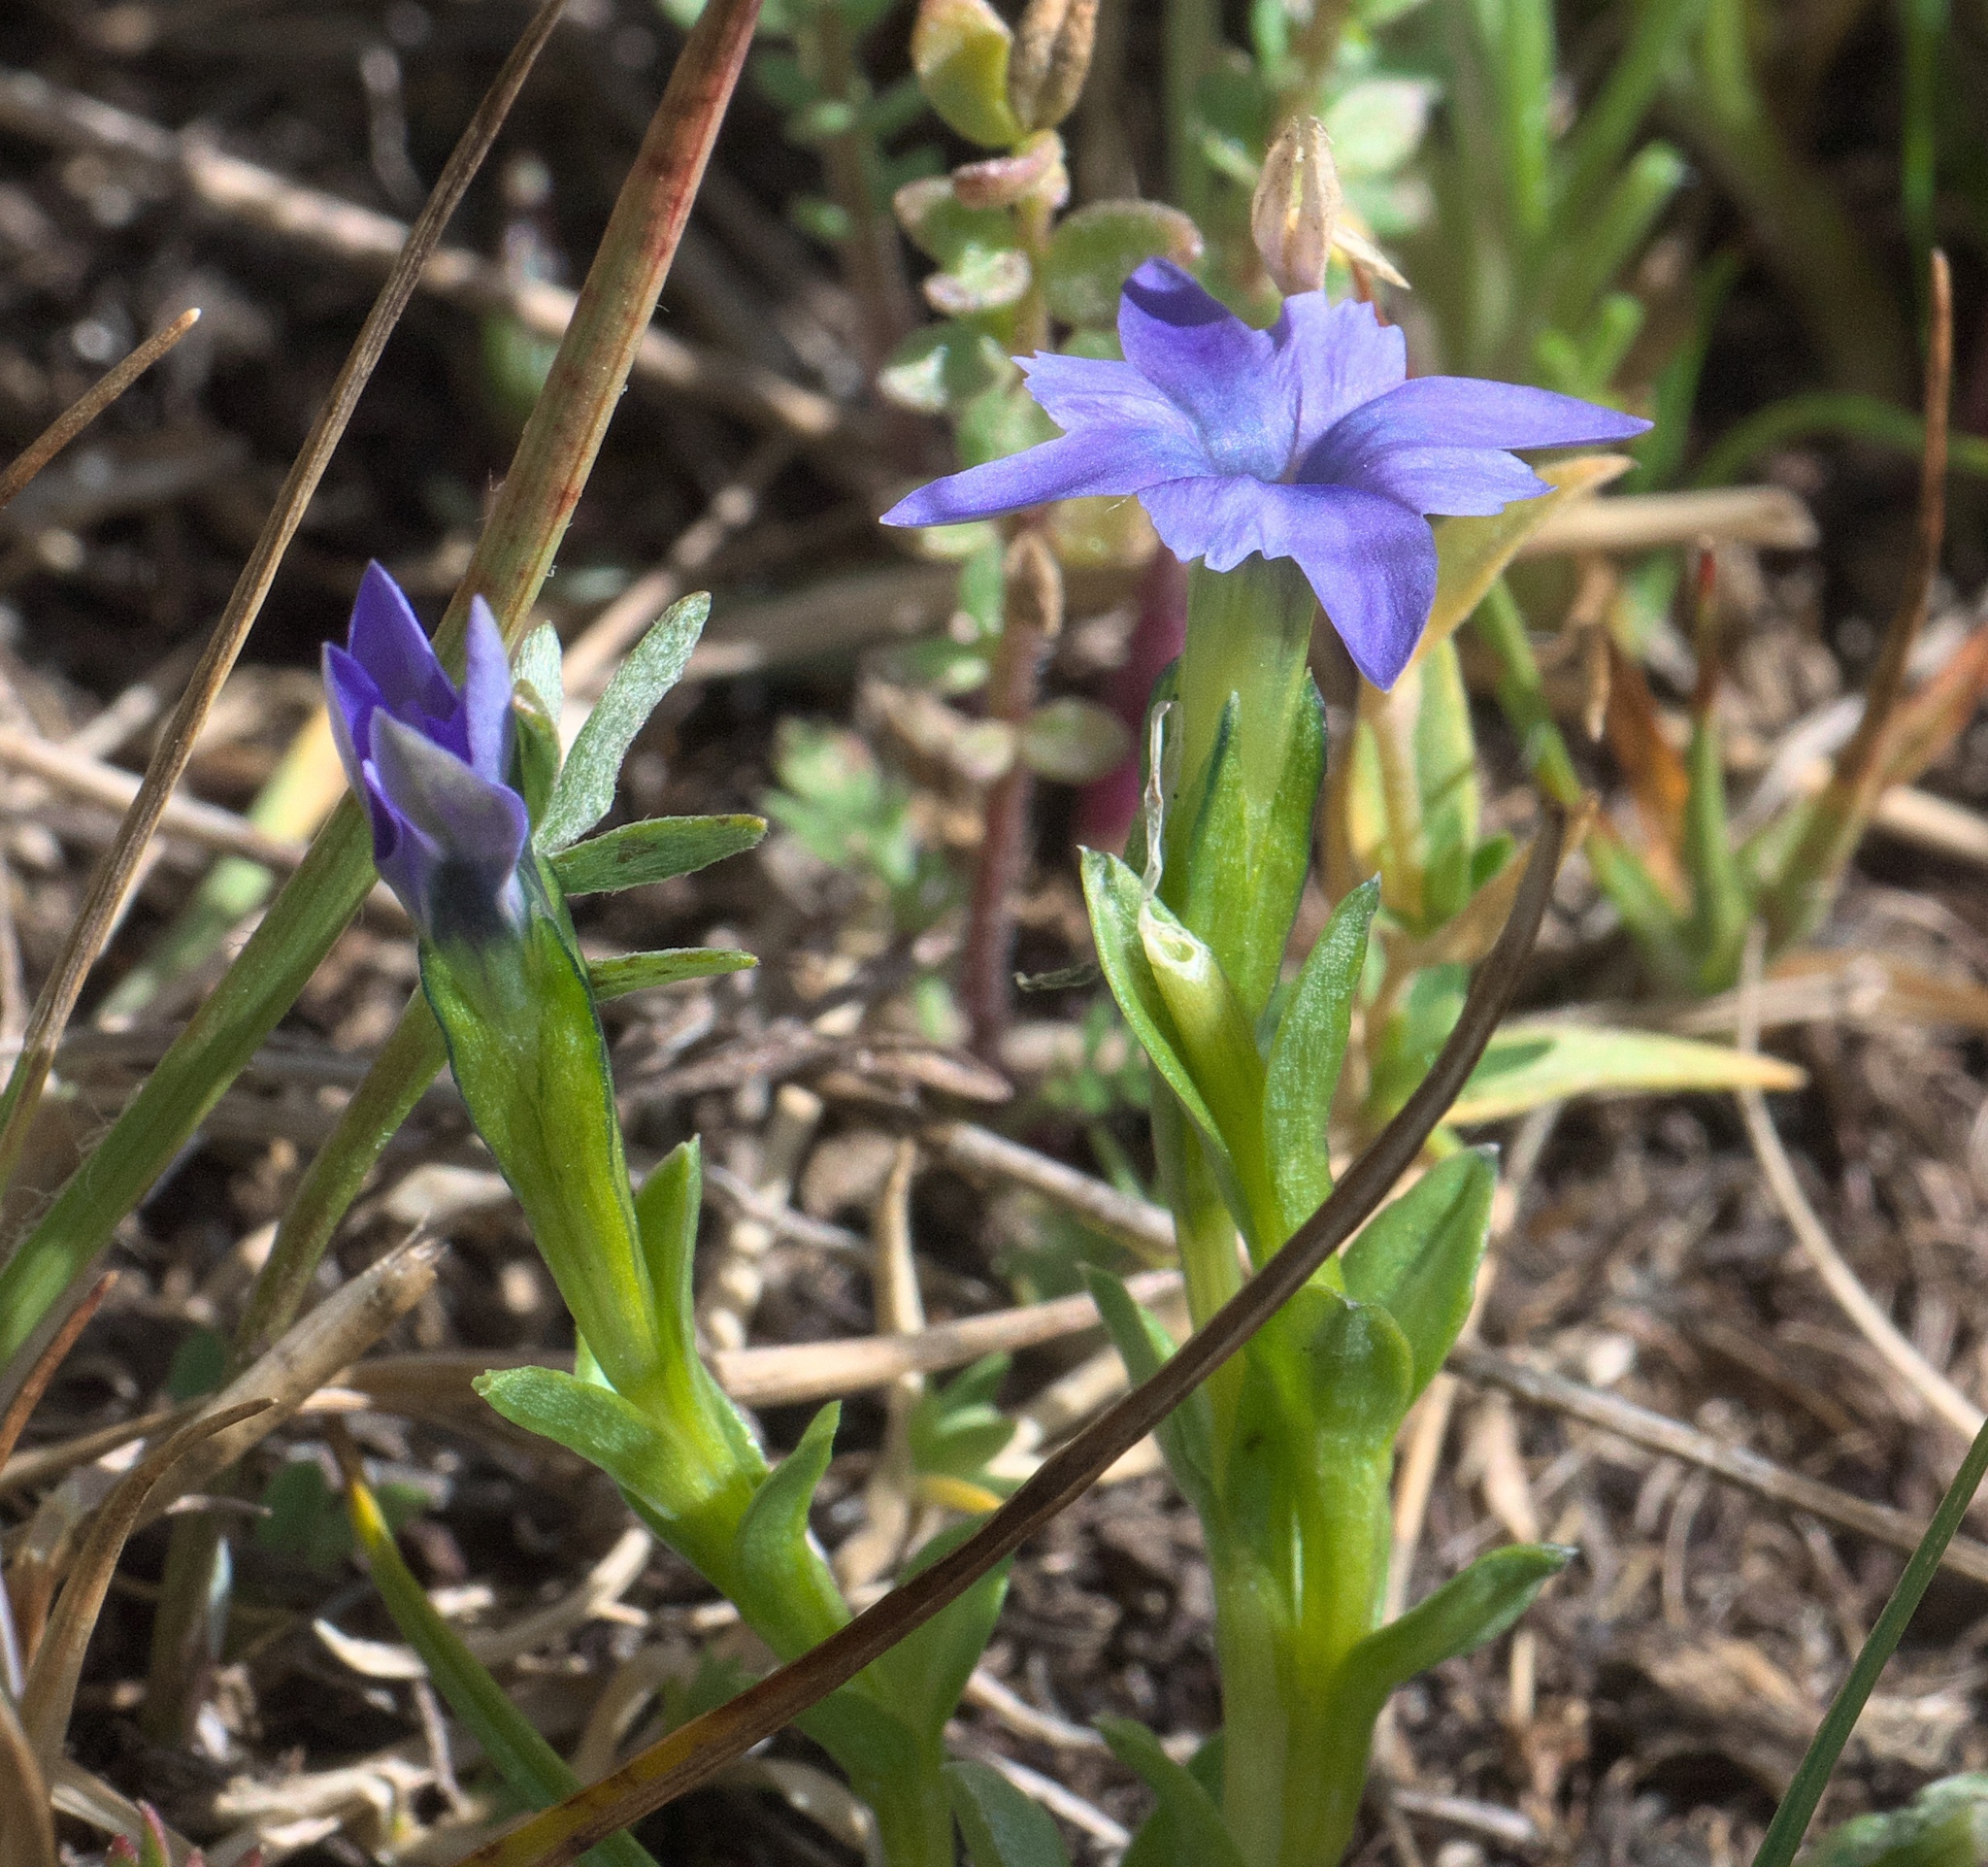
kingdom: Plantae
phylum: Tracheophyta
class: Magnoliopsida
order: Gentianales
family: Gentianaceae
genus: Gentiana
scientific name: Gentiana prostrata
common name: Moss gentian
